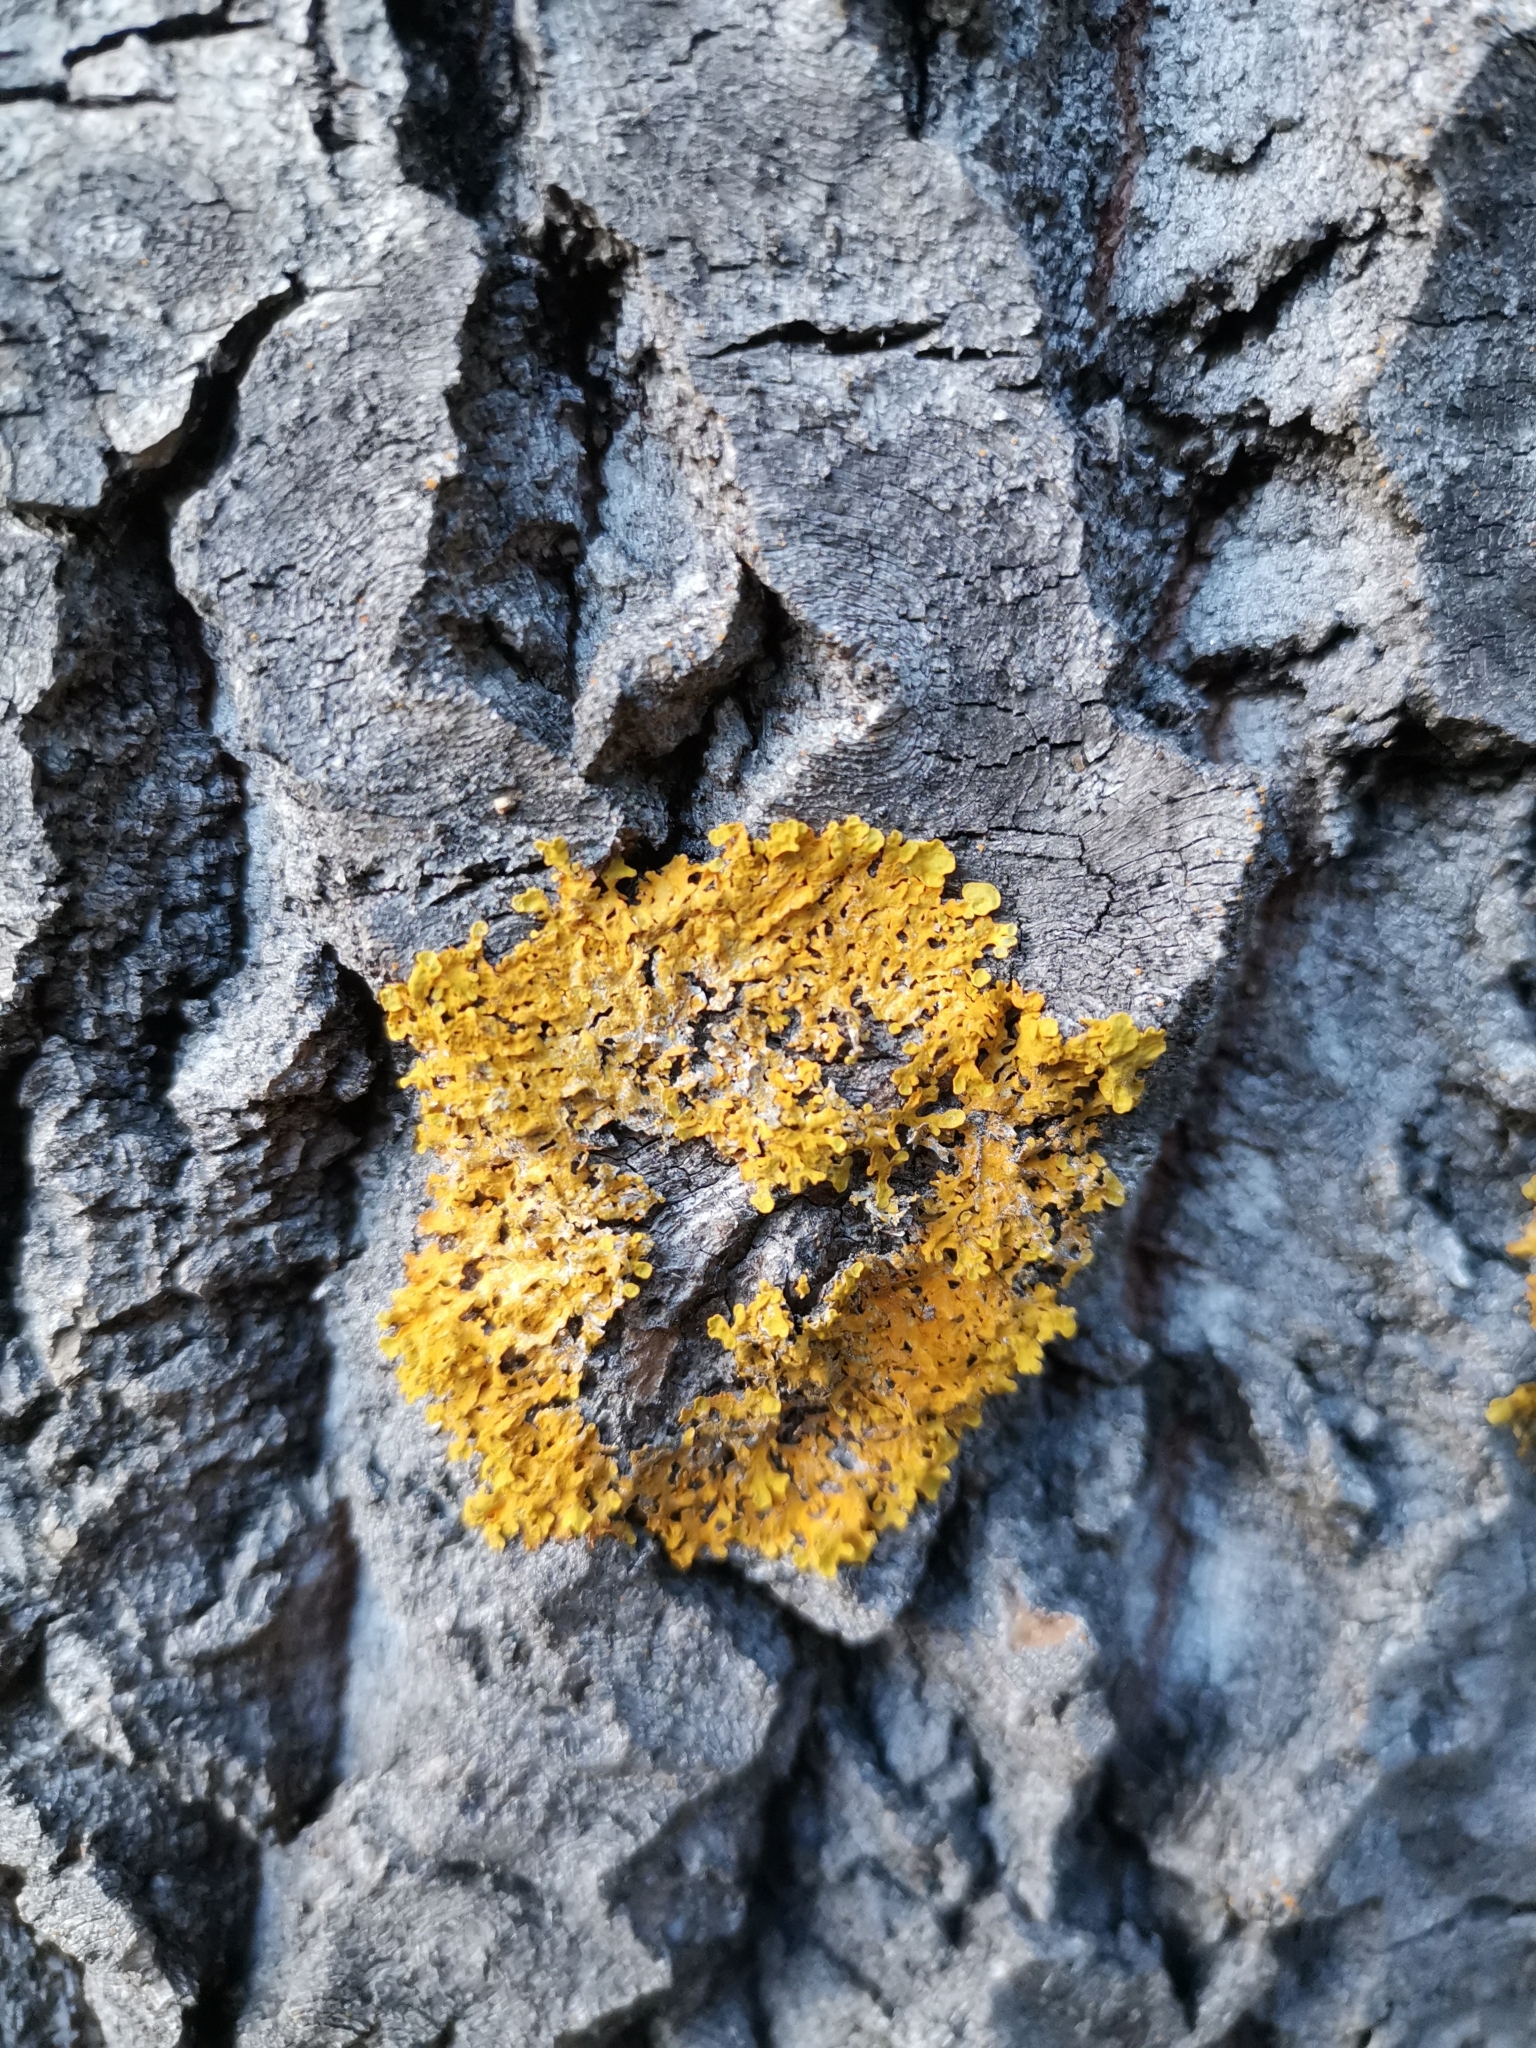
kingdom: Fungi
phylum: Ascomycota
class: Lecanoromycetes
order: Teloschistales
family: Teloschistaceae
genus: Xanthoria
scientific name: Xanthoria parietina
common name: Common orange lichen
